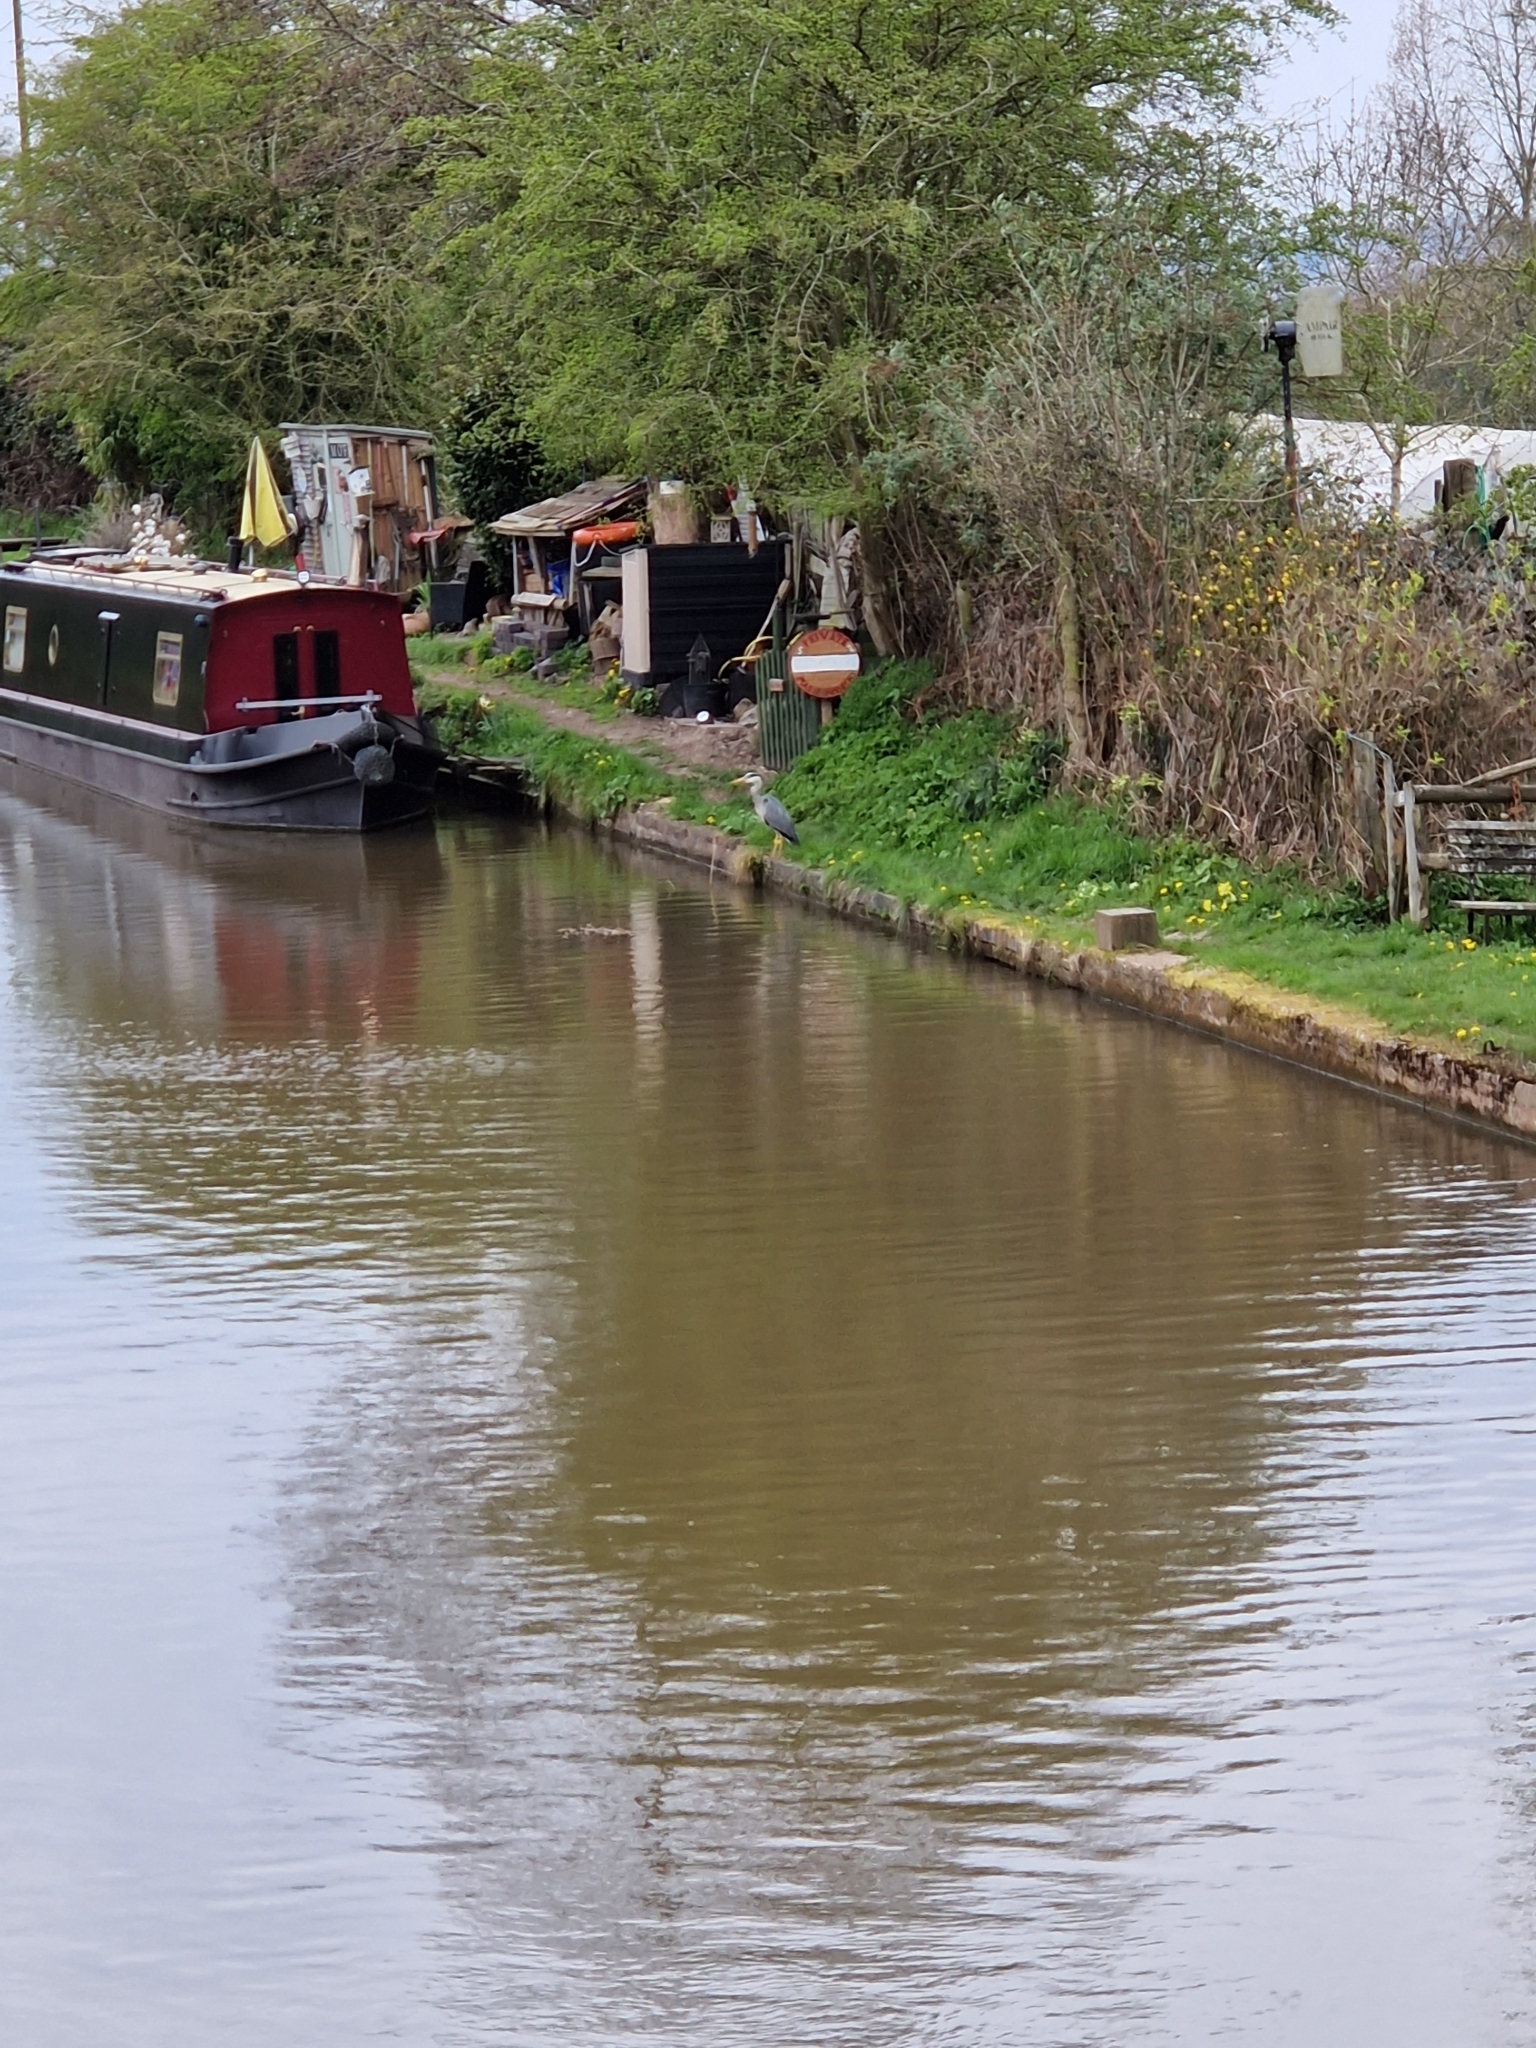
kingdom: Animalia
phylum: Chordata
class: Aves
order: Pelecaniformes
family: Ardeidae
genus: Ardea
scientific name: Ardea cinerea
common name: Grey heron
